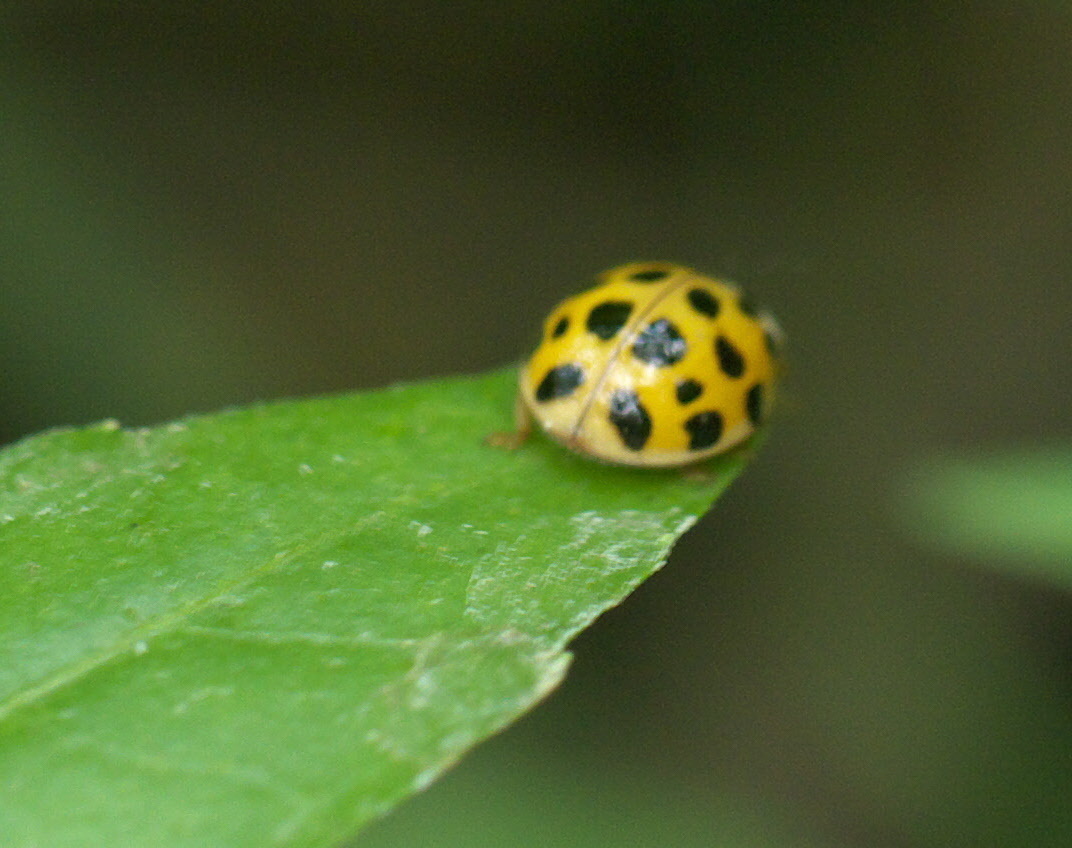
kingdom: Animalia
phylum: Arthropoda
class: Insecta
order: Coleoptera
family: Coccinellidae
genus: Harmonia
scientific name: Harmonia axyridis
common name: Harlequin ladybird
